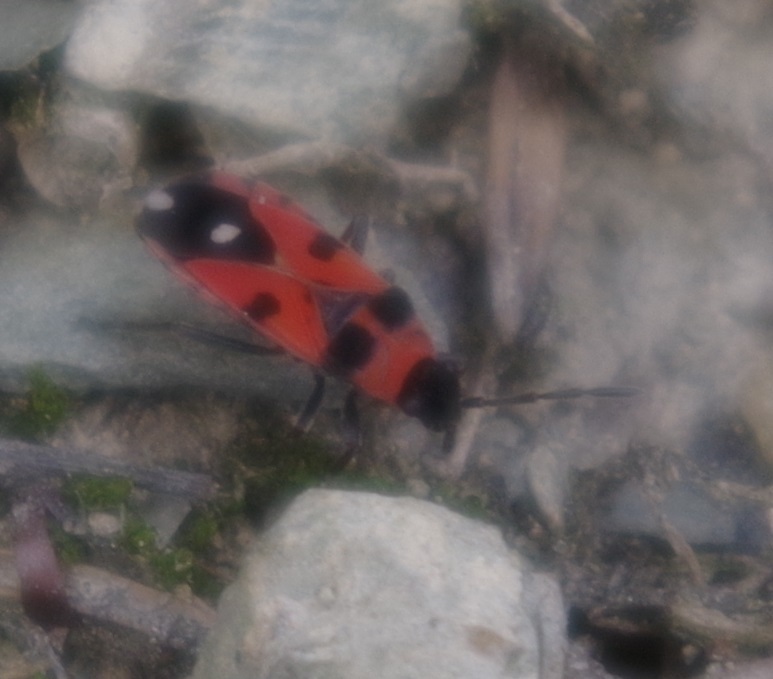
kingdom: Animalia
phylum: Arthropoda
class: Insecta
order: Hemiptera
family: Lygaeidae
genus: Horvathiolus
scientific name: Horvathiolus superbus
